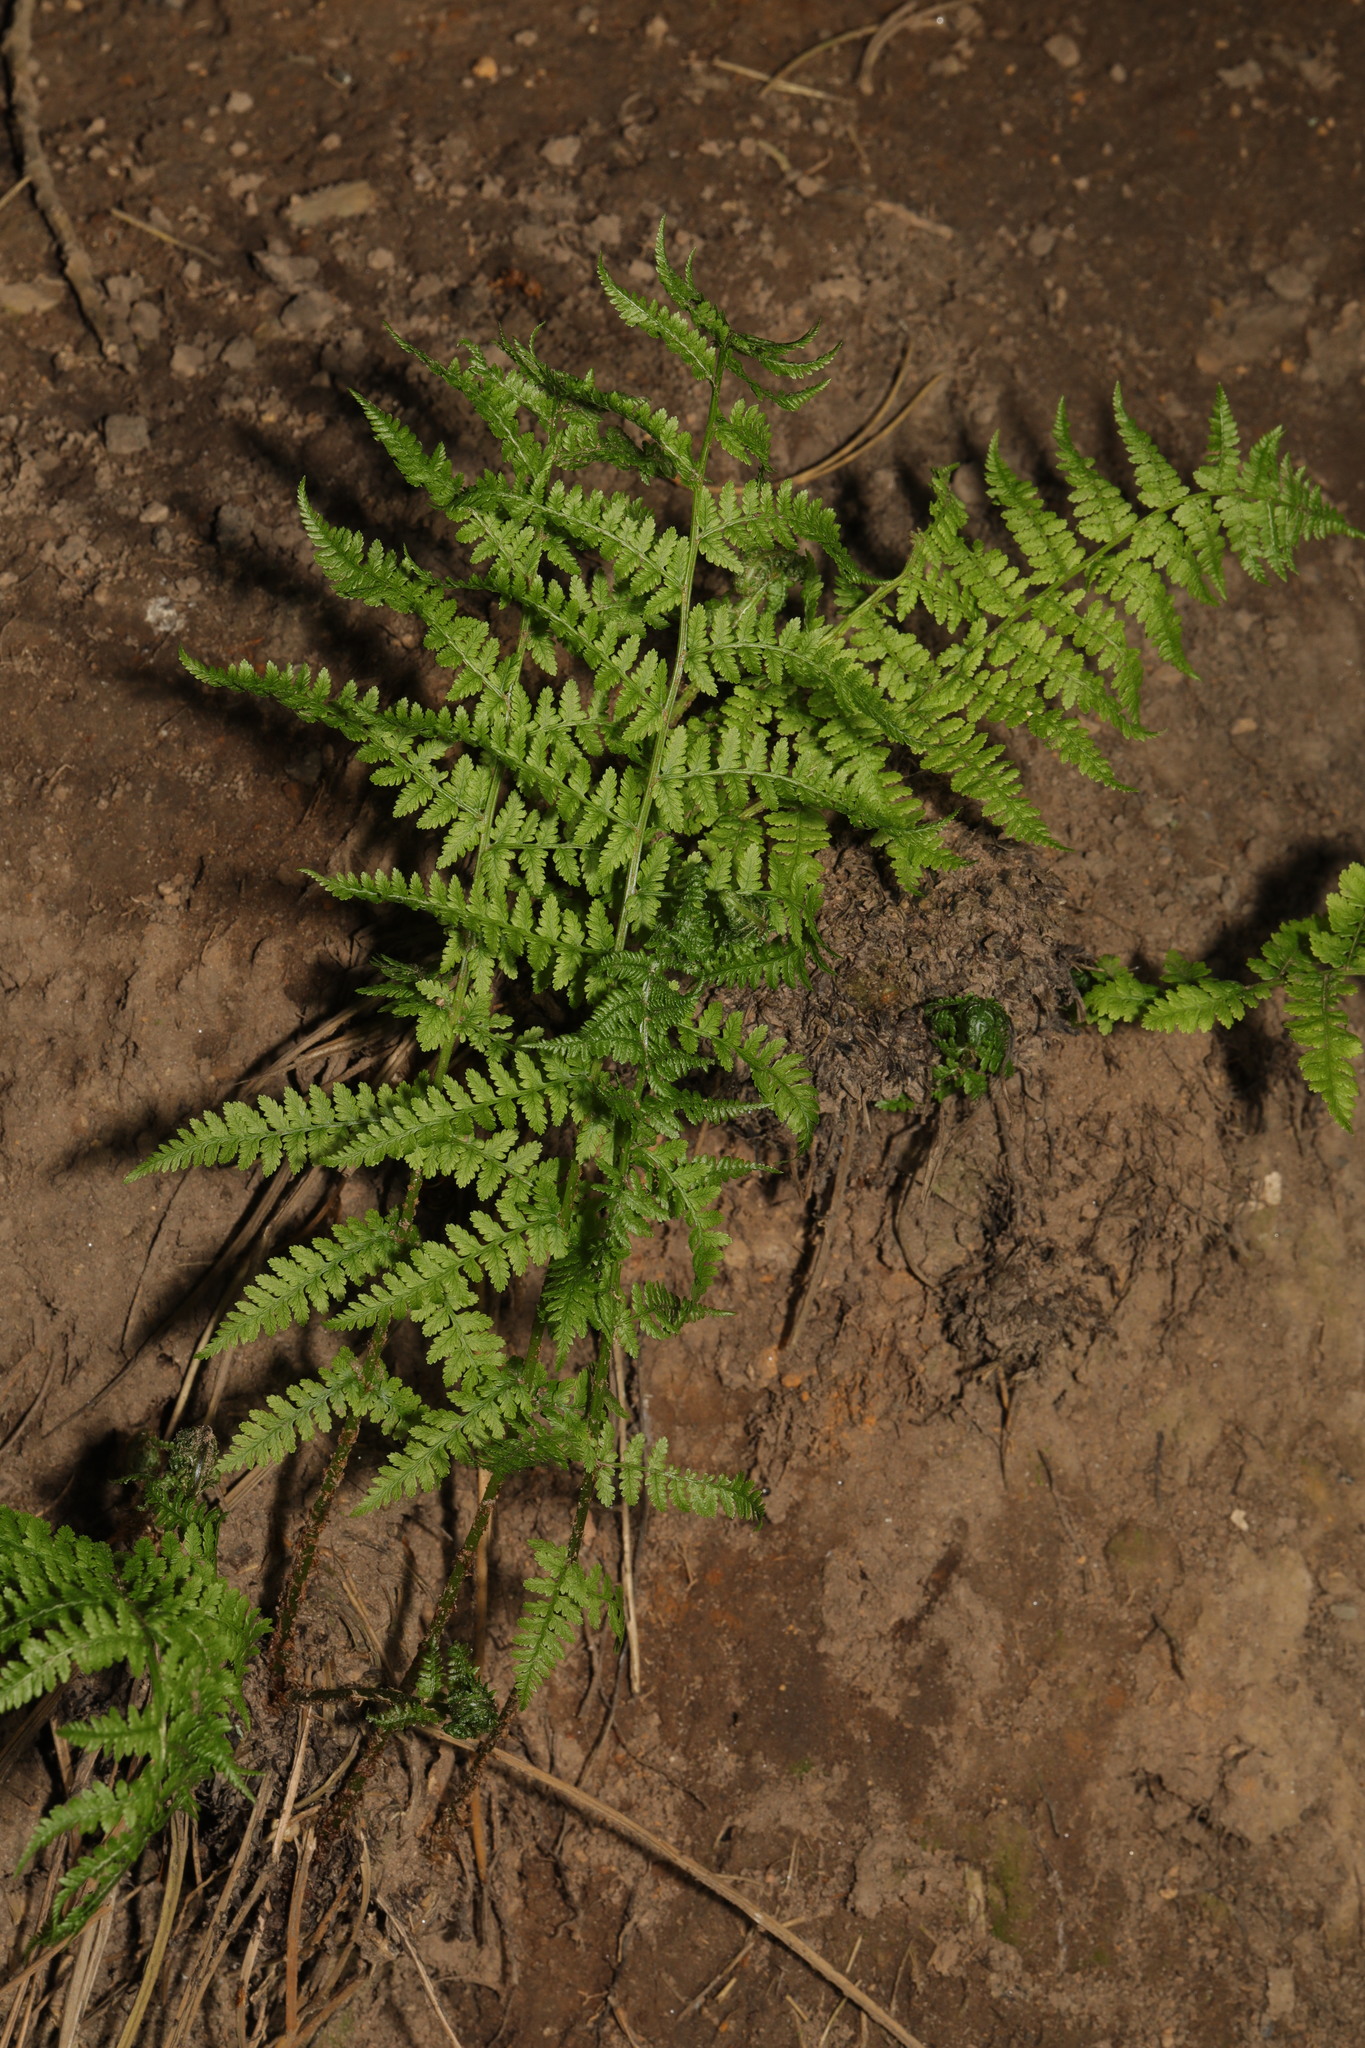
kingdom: Plantae
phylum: Tracheophyta
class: Polypodiopsida
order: Polypodiales
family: Dryopteridaceae
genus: Dryopteris
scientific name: Dryopteris dilatata
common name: Broad buckler-fern
